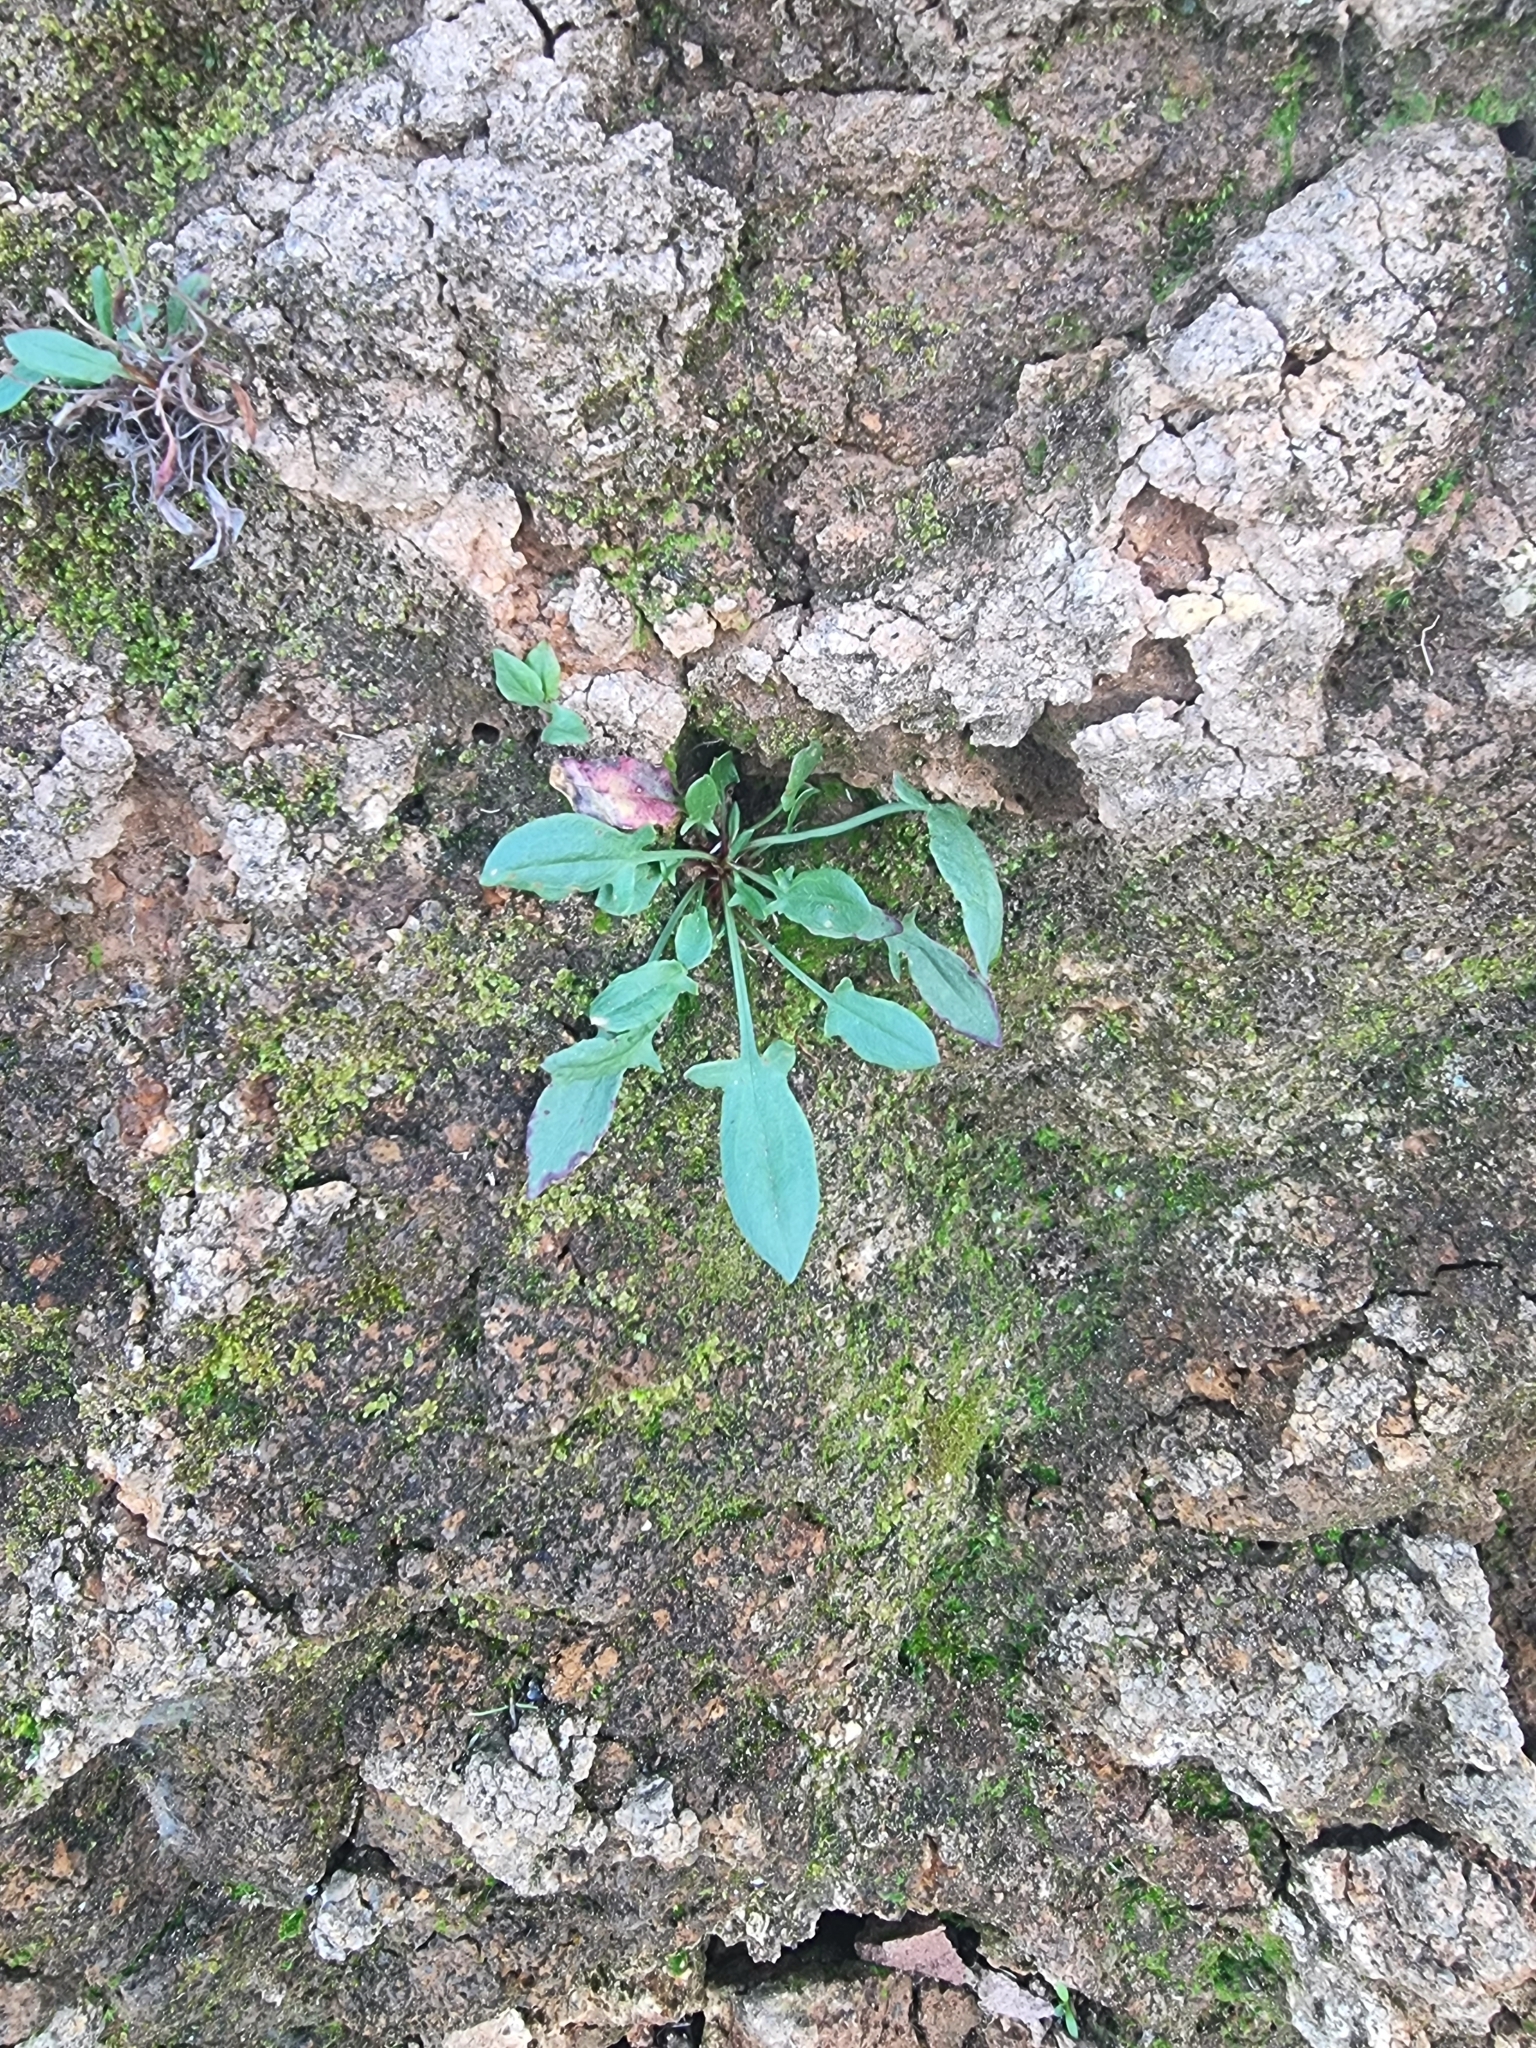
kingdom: Plantae
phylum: Tracheophyta
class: Magnoliopsida
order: Caryophyllales
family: Polygonaceae
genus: Rumex
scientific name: Rumex acetosella
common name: Common sheep sorrel
